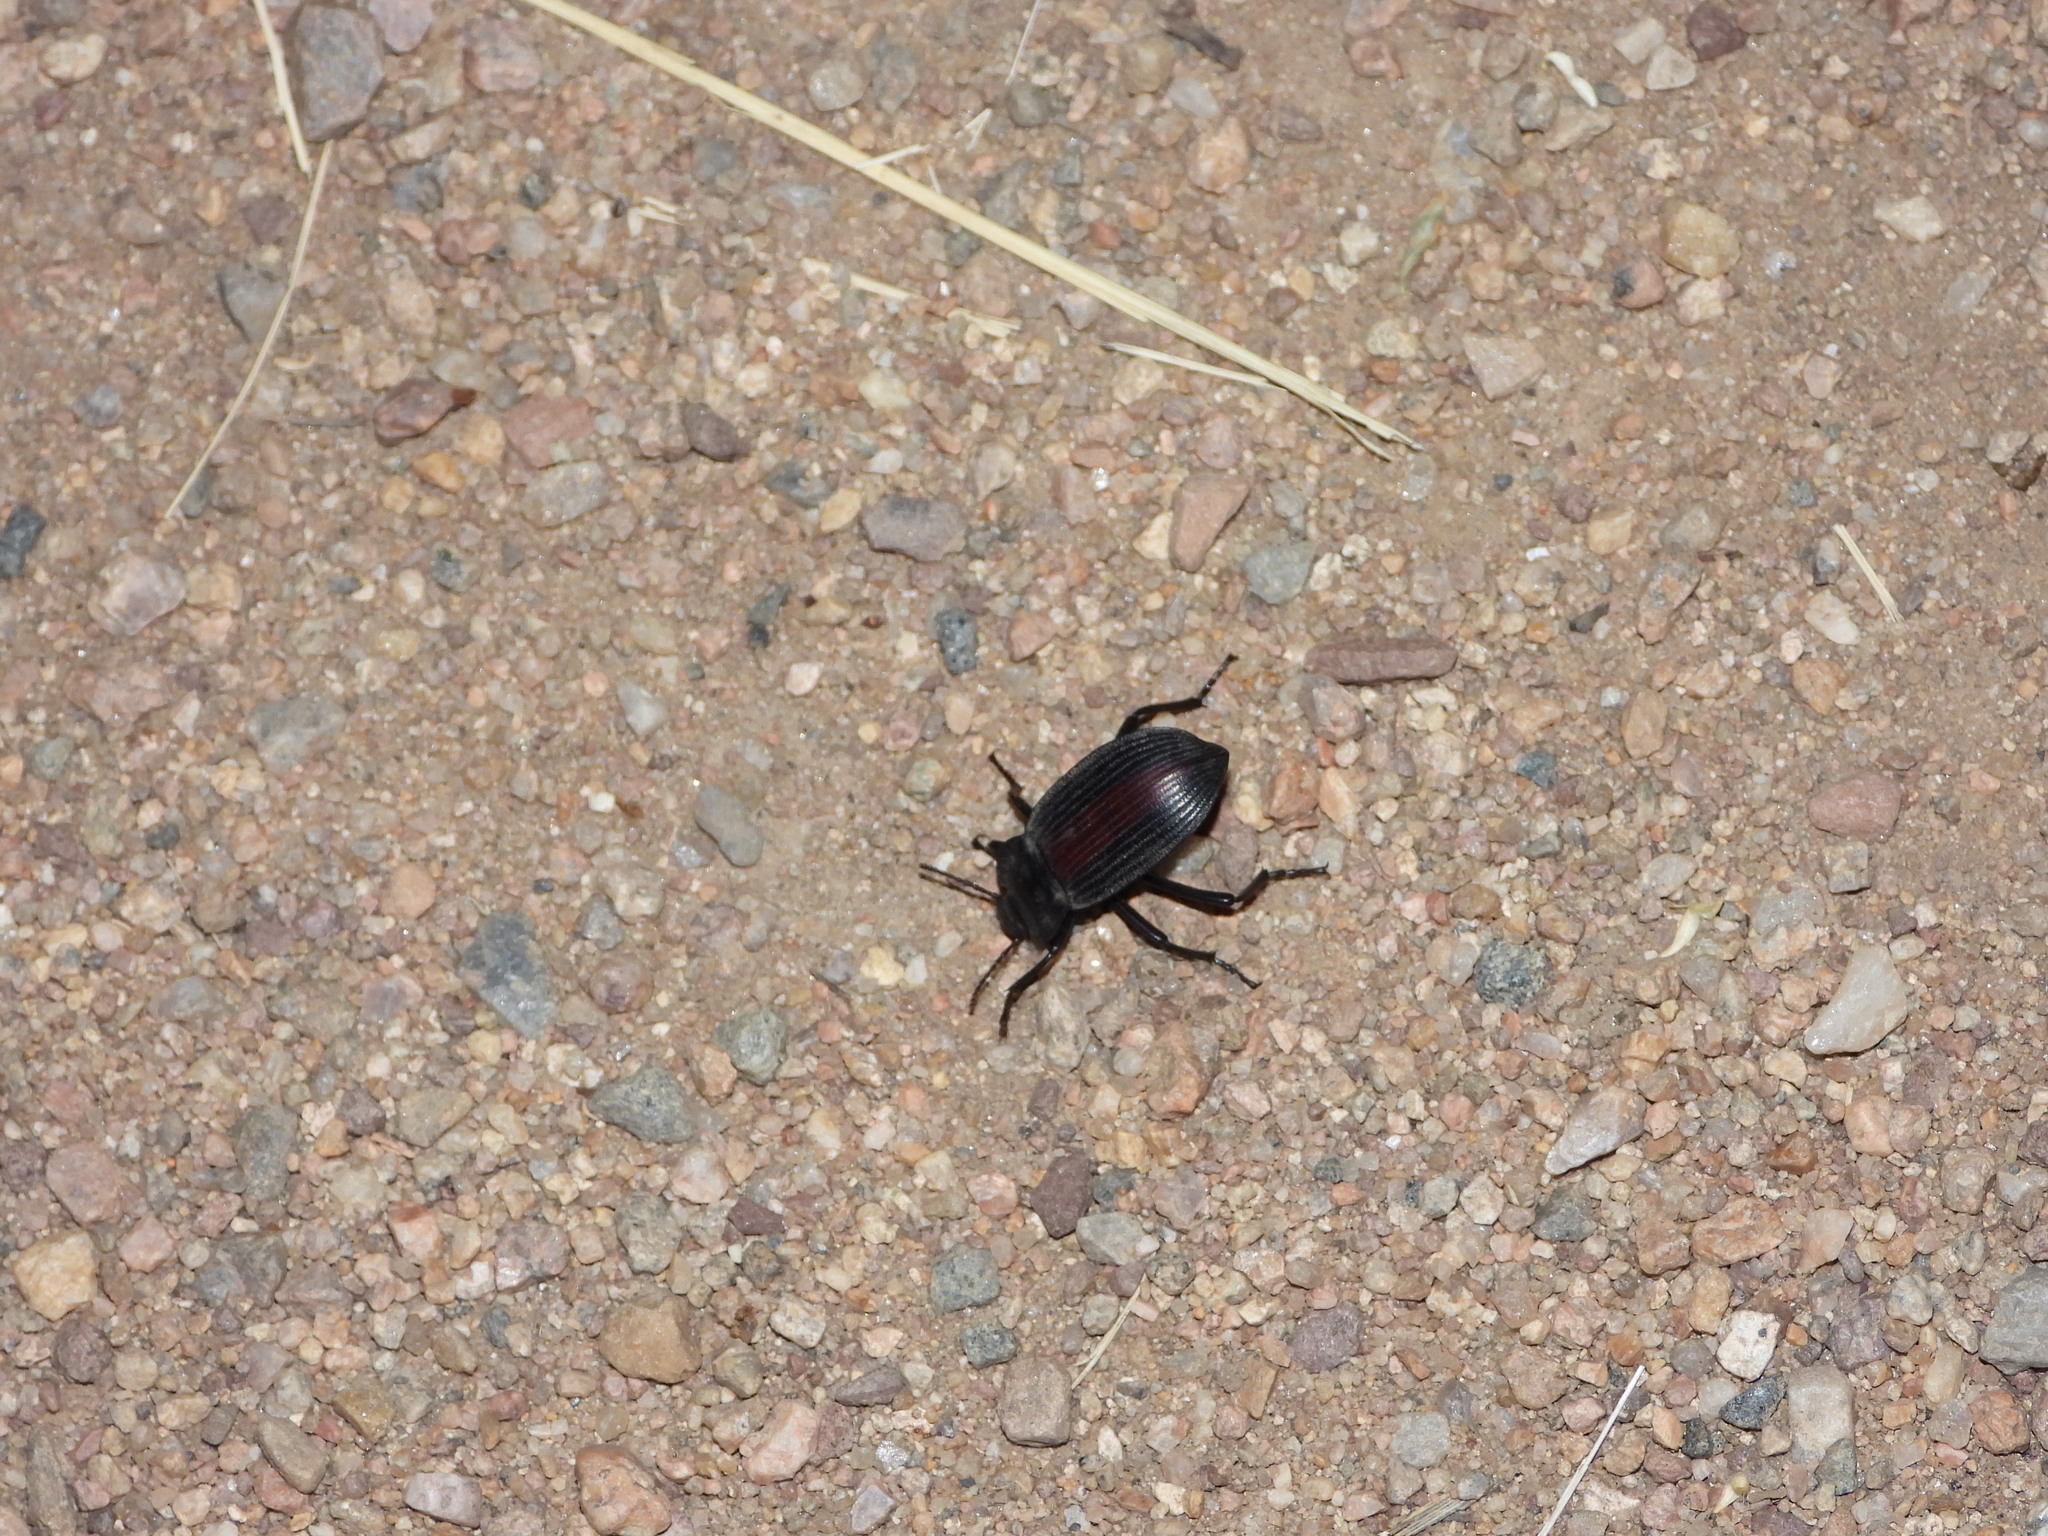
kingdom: Animalia
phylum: Arthropoda
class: Insecta
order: Coleoptera
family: Tenebrionidae
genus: Eleodes
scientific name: Eleodes suturalis
